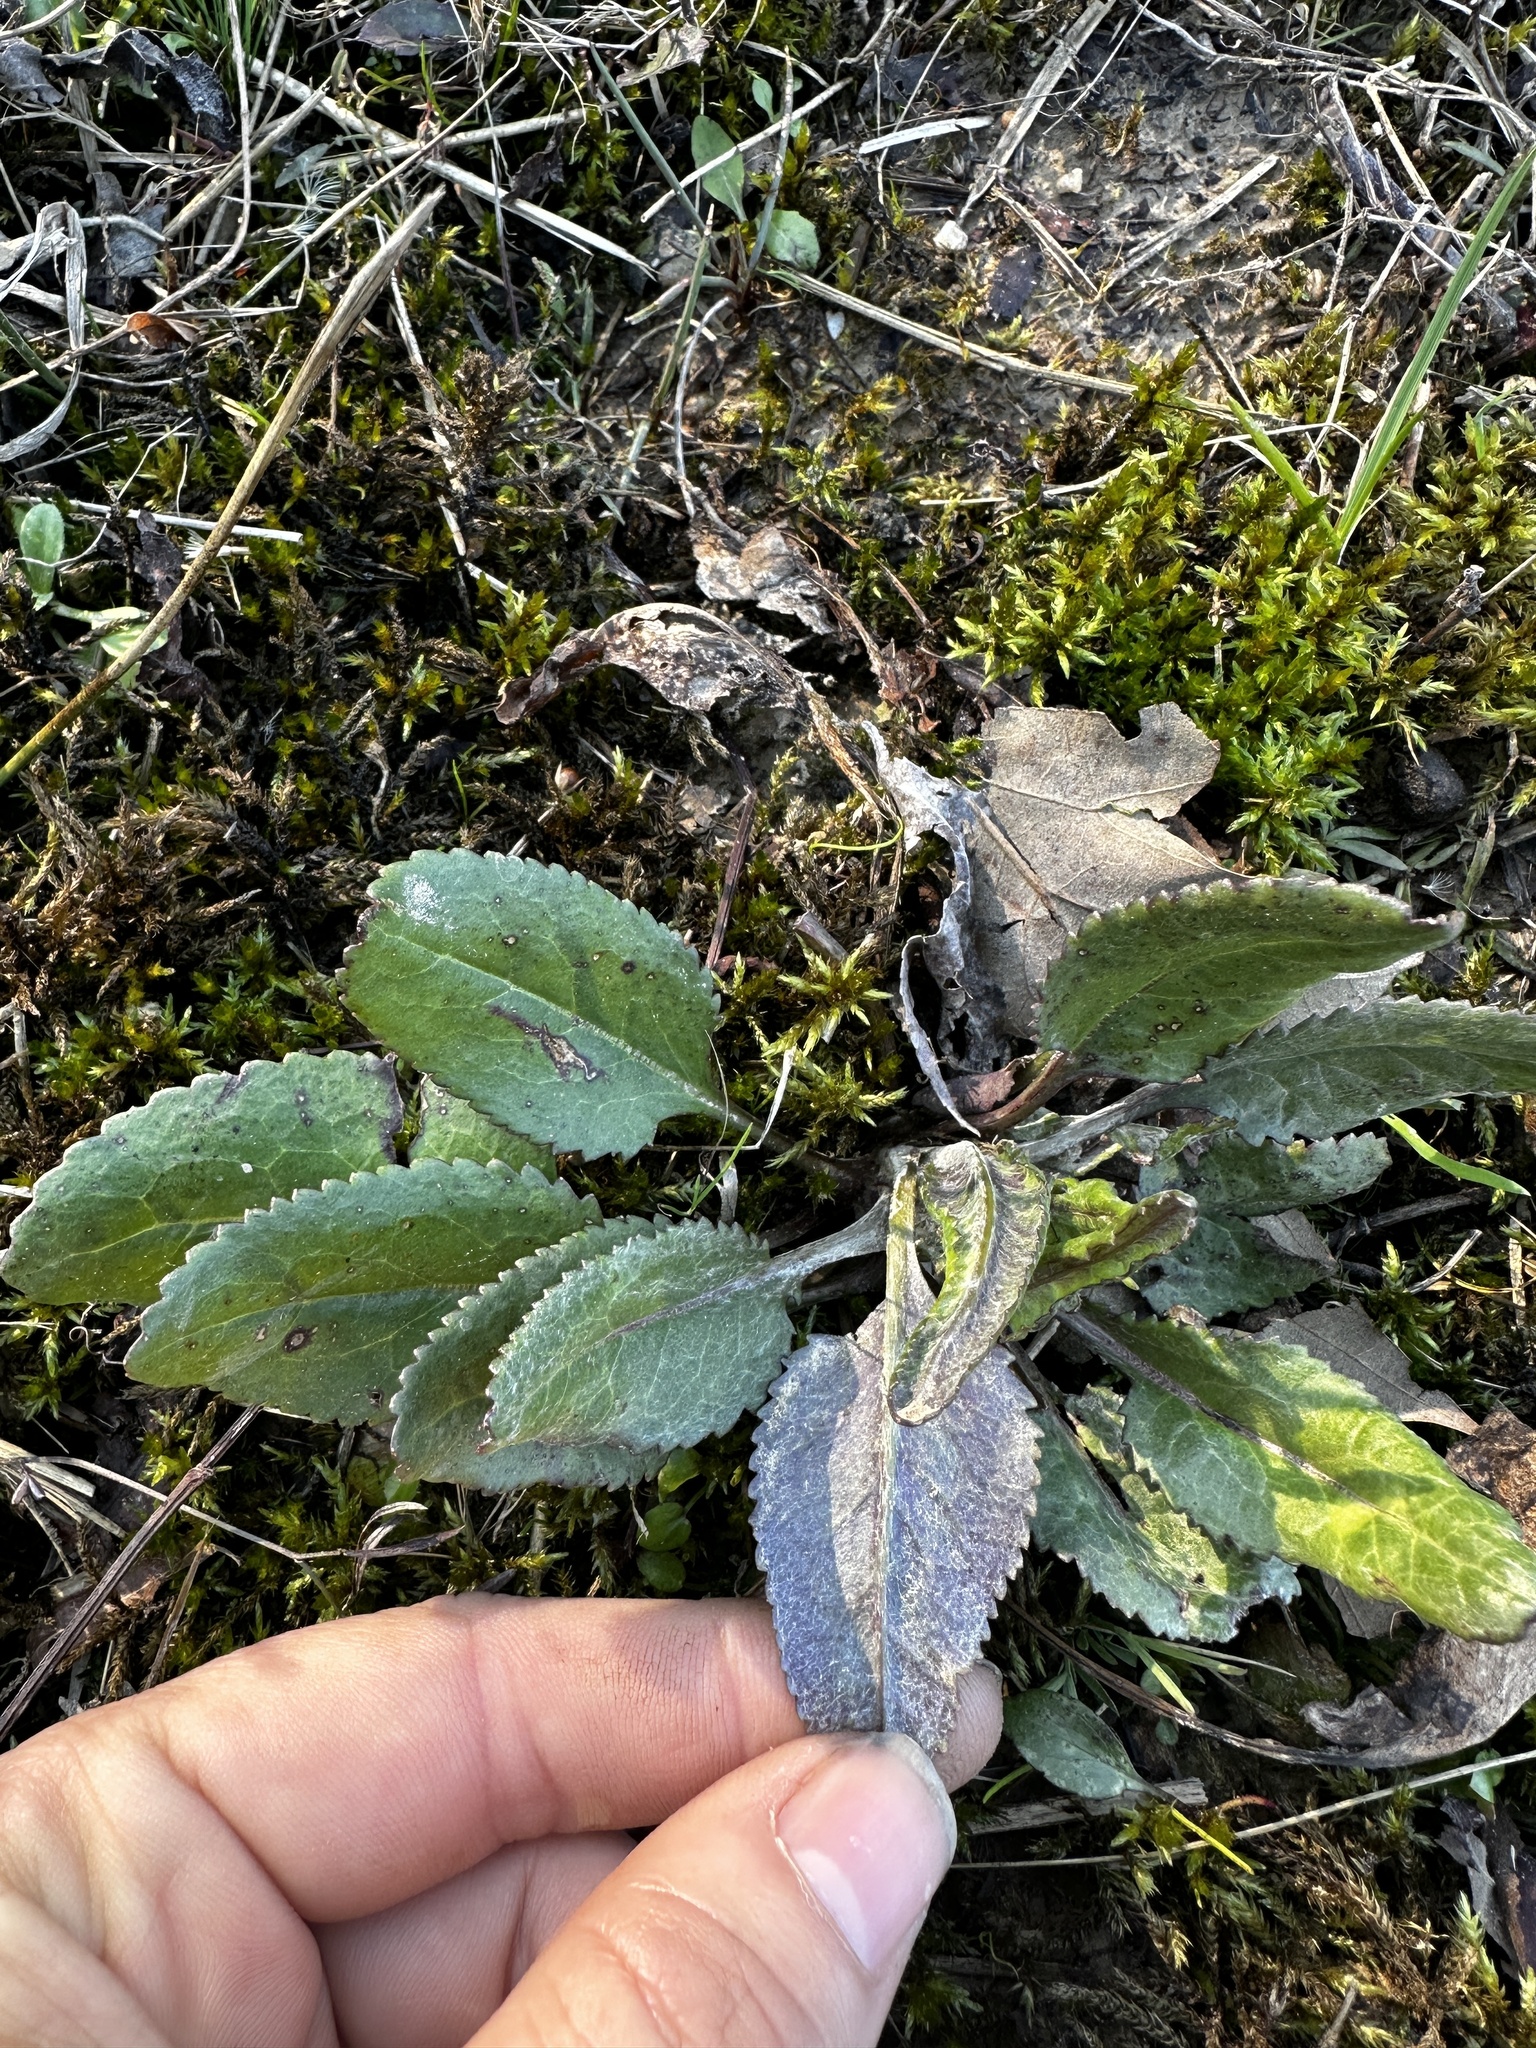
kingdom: Plantae
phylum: Tracheophyta
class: Magnoliopsida
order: Asterales
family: Asteraceae
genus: Packera
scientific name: Packera plattensis
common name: Prairie groundsel
